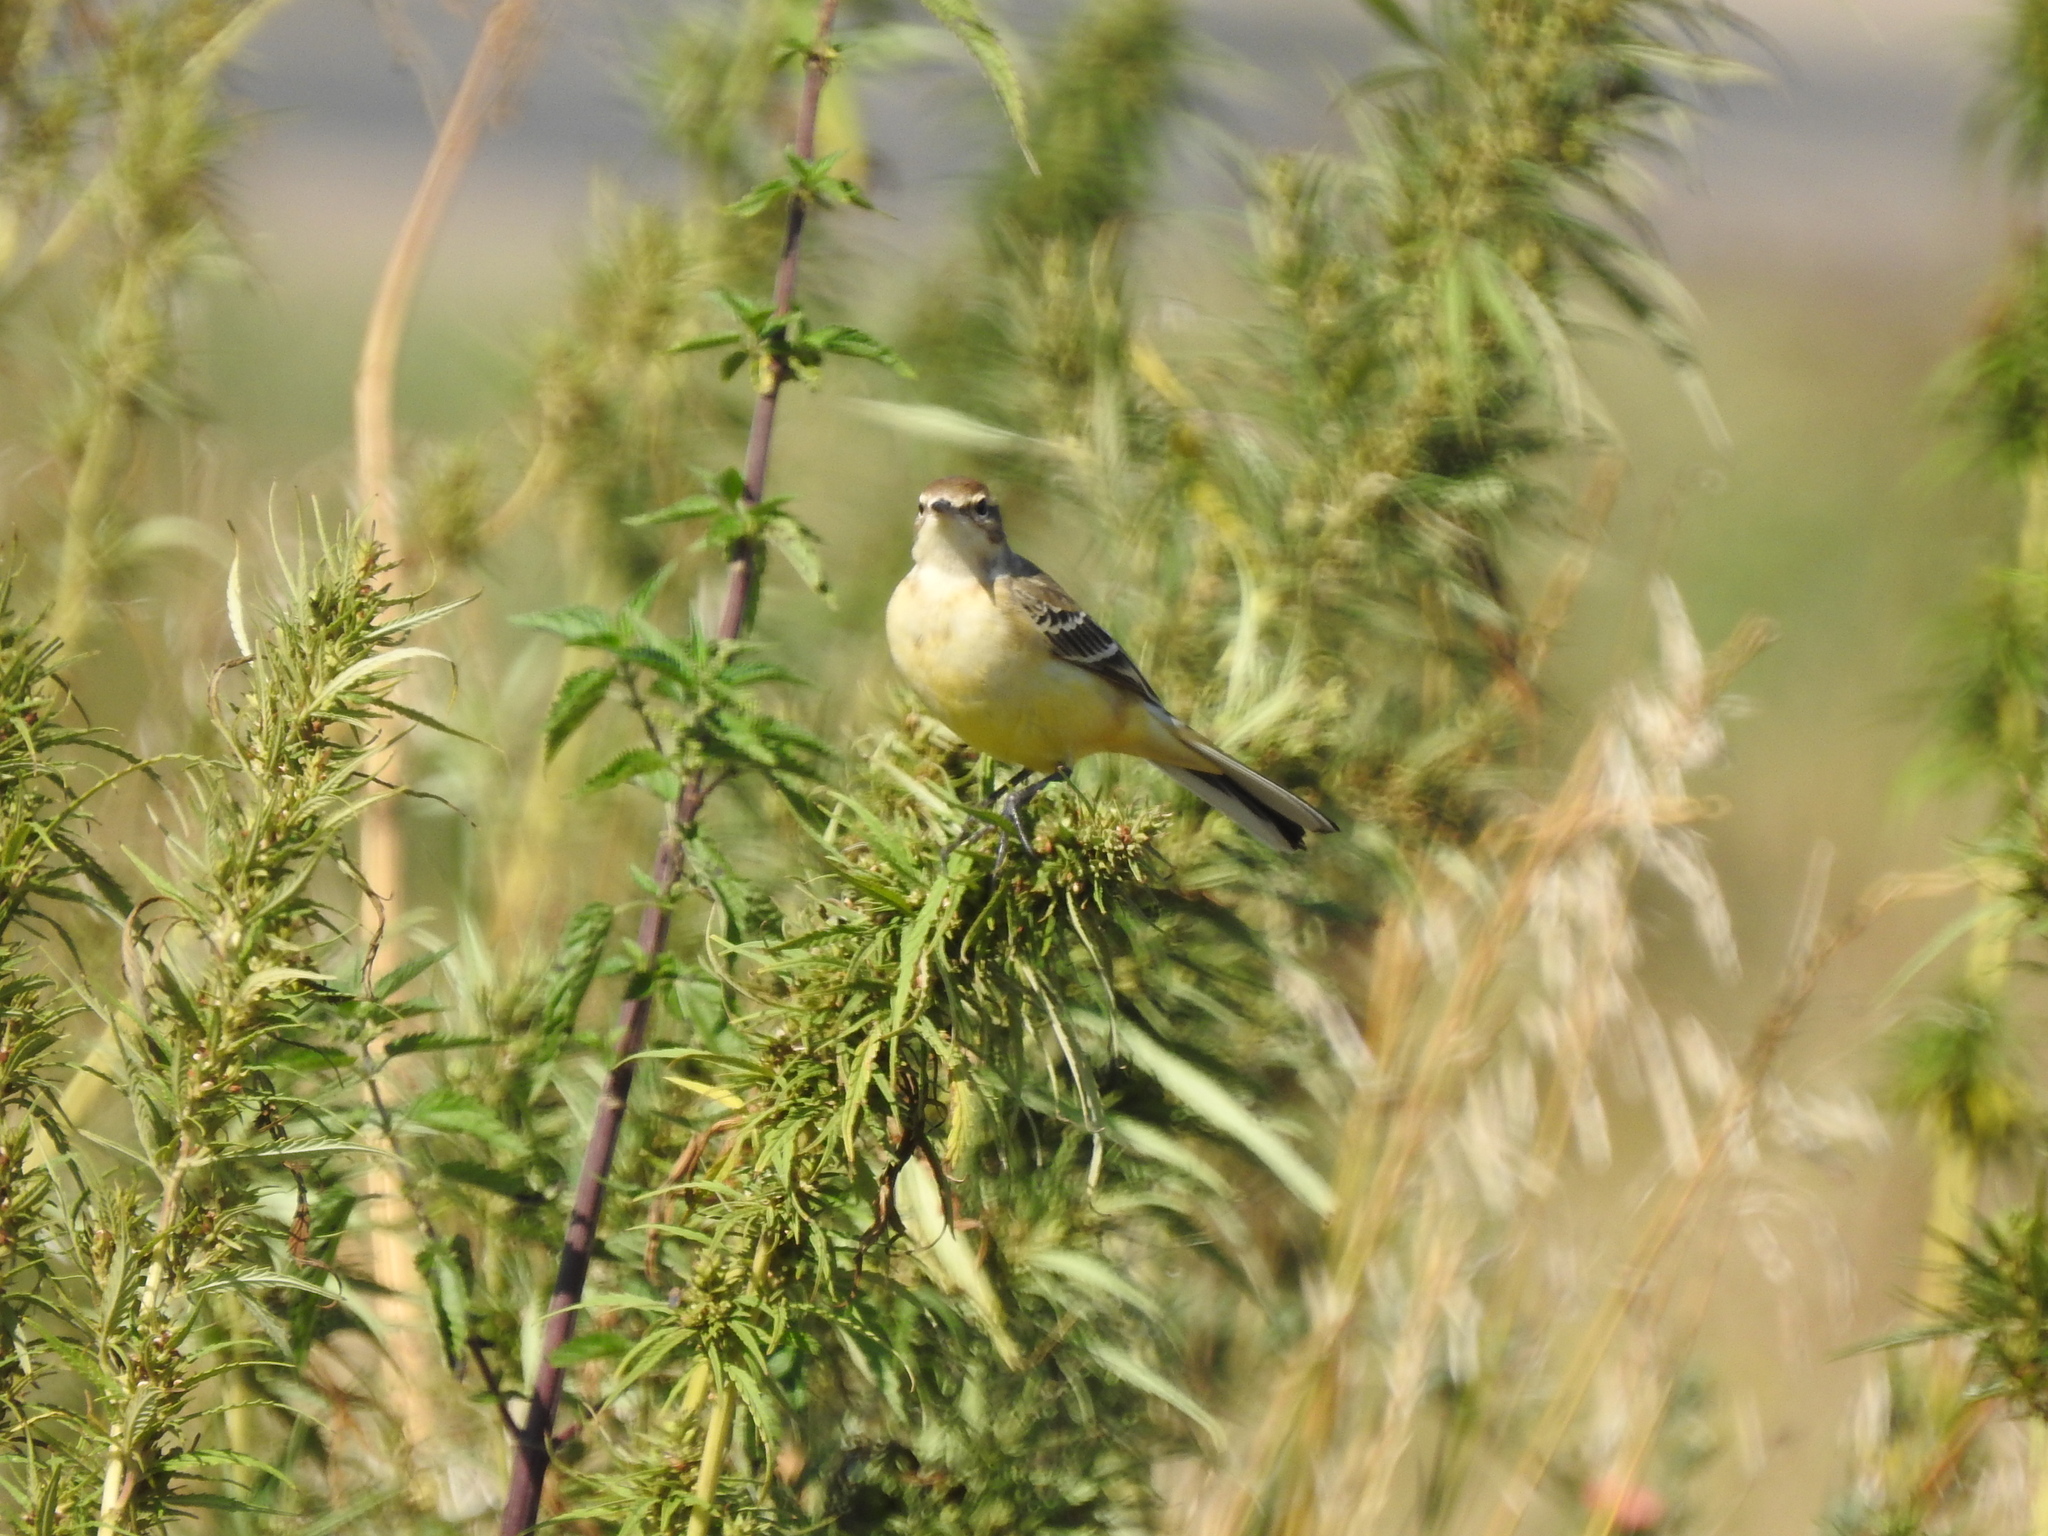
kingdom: Animalia
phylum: Chordata
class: Aves
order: Passeriformes
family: Motacillidae
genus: Motacilla
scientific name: Motacilla flava
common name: Western yellow wagtail
